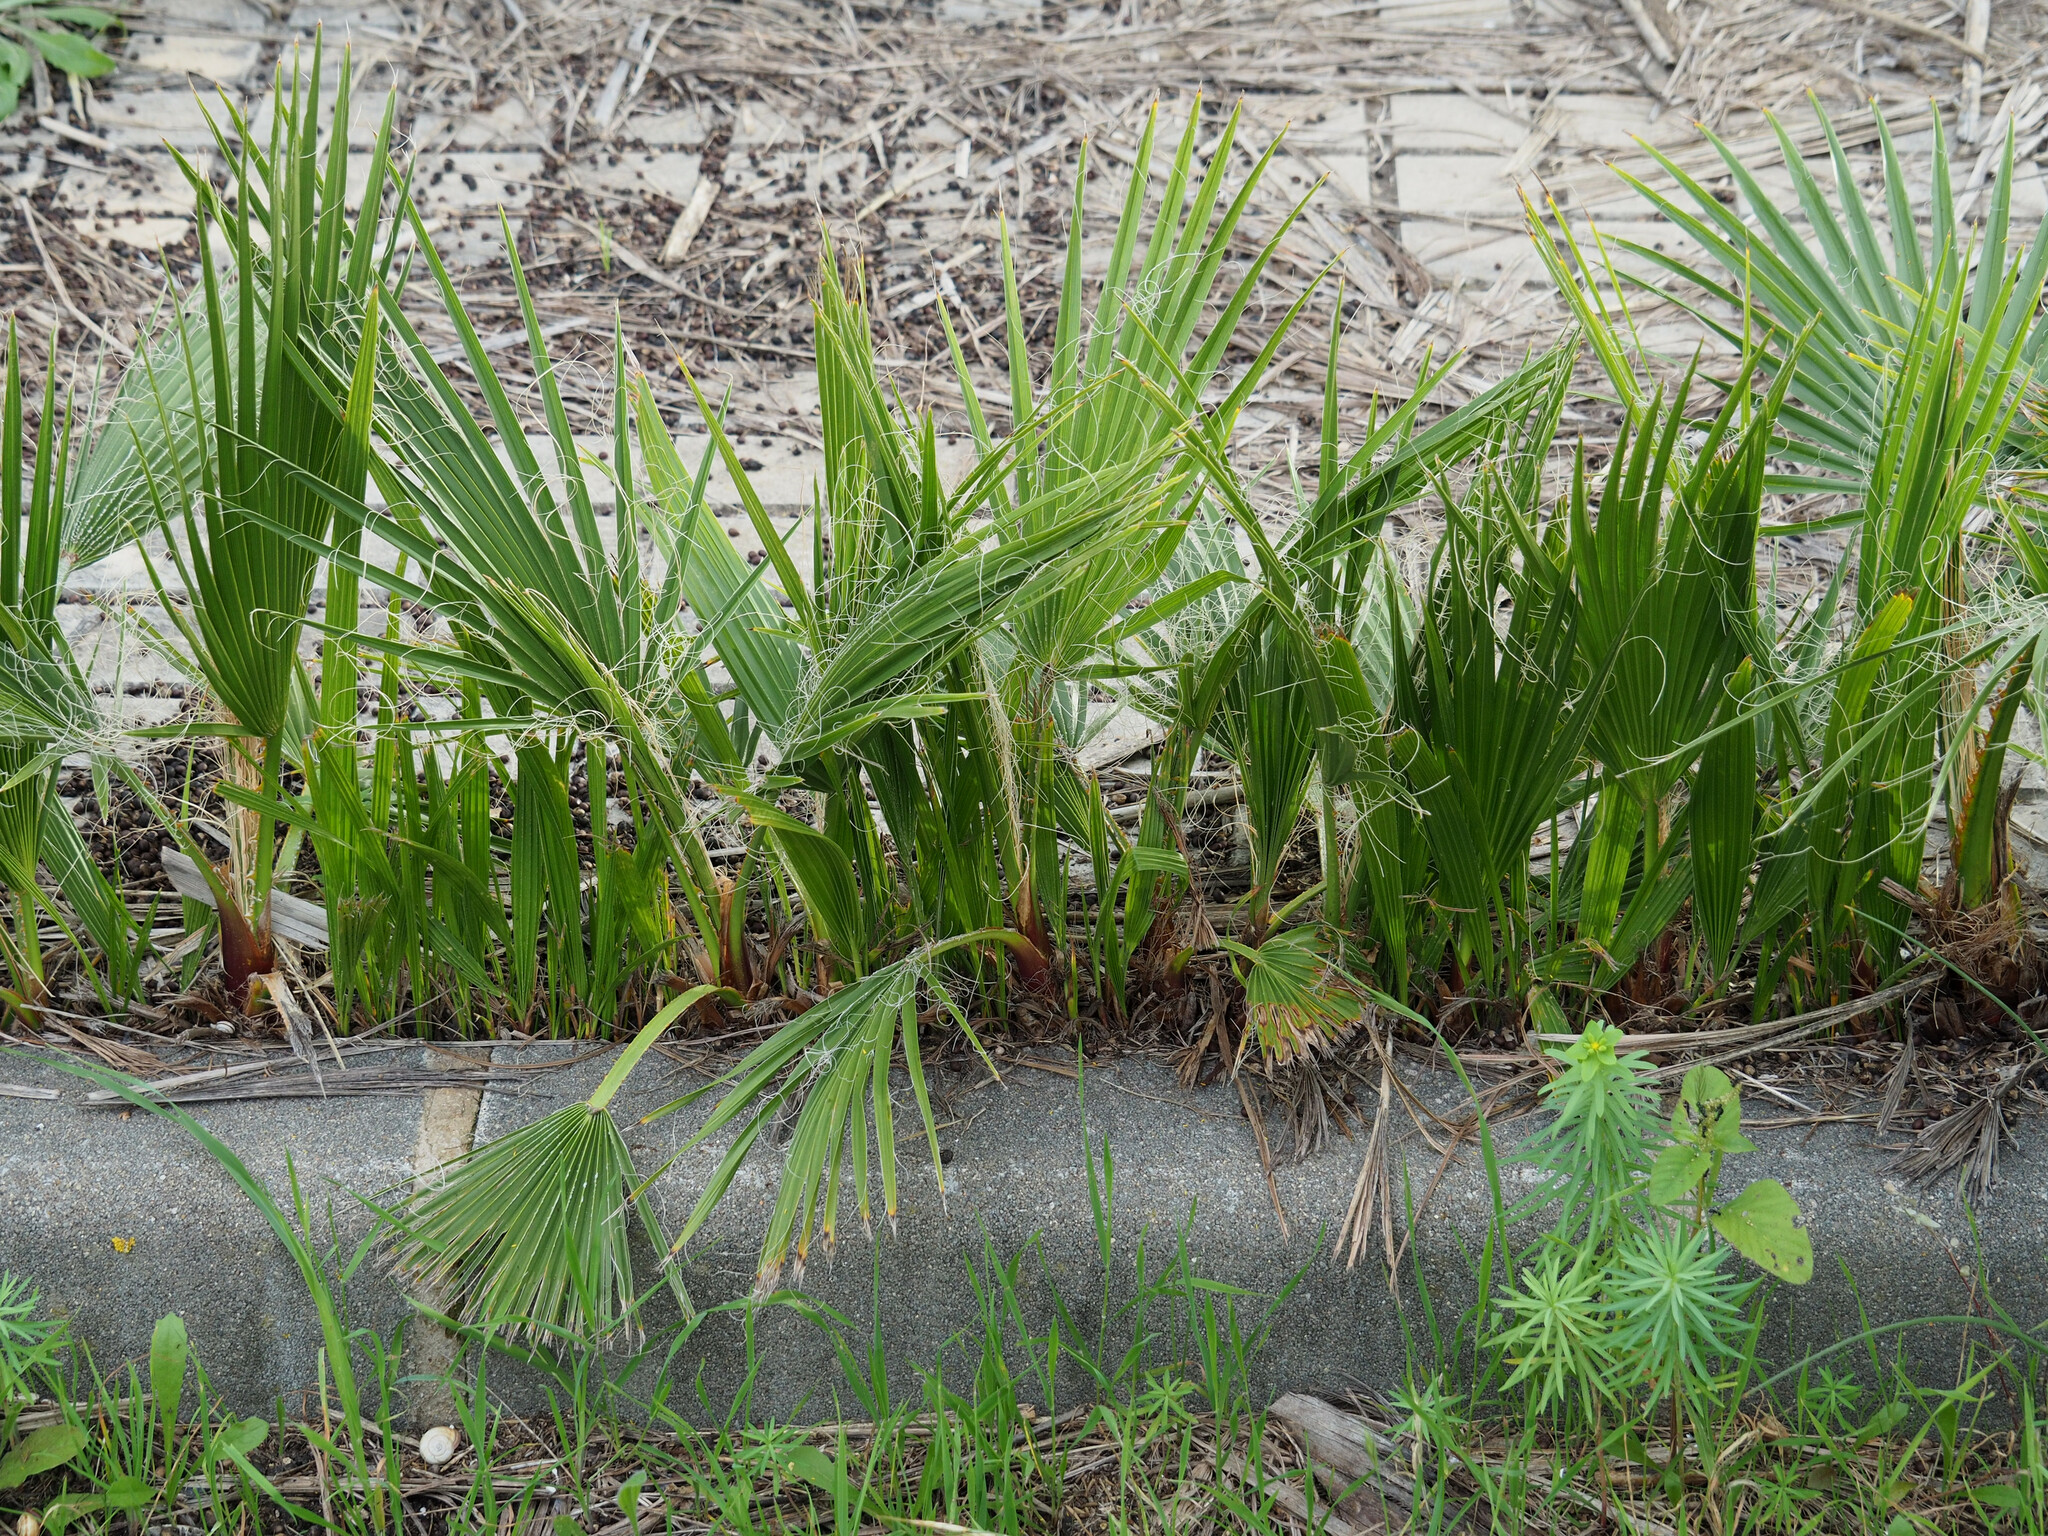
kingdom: Plantae
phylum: Tracheophyta
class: Liliopsida
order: Arecales
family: Arecaceae
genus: Chamaerops
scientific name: Chamaerops humilis
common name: Dwarf fan palm
